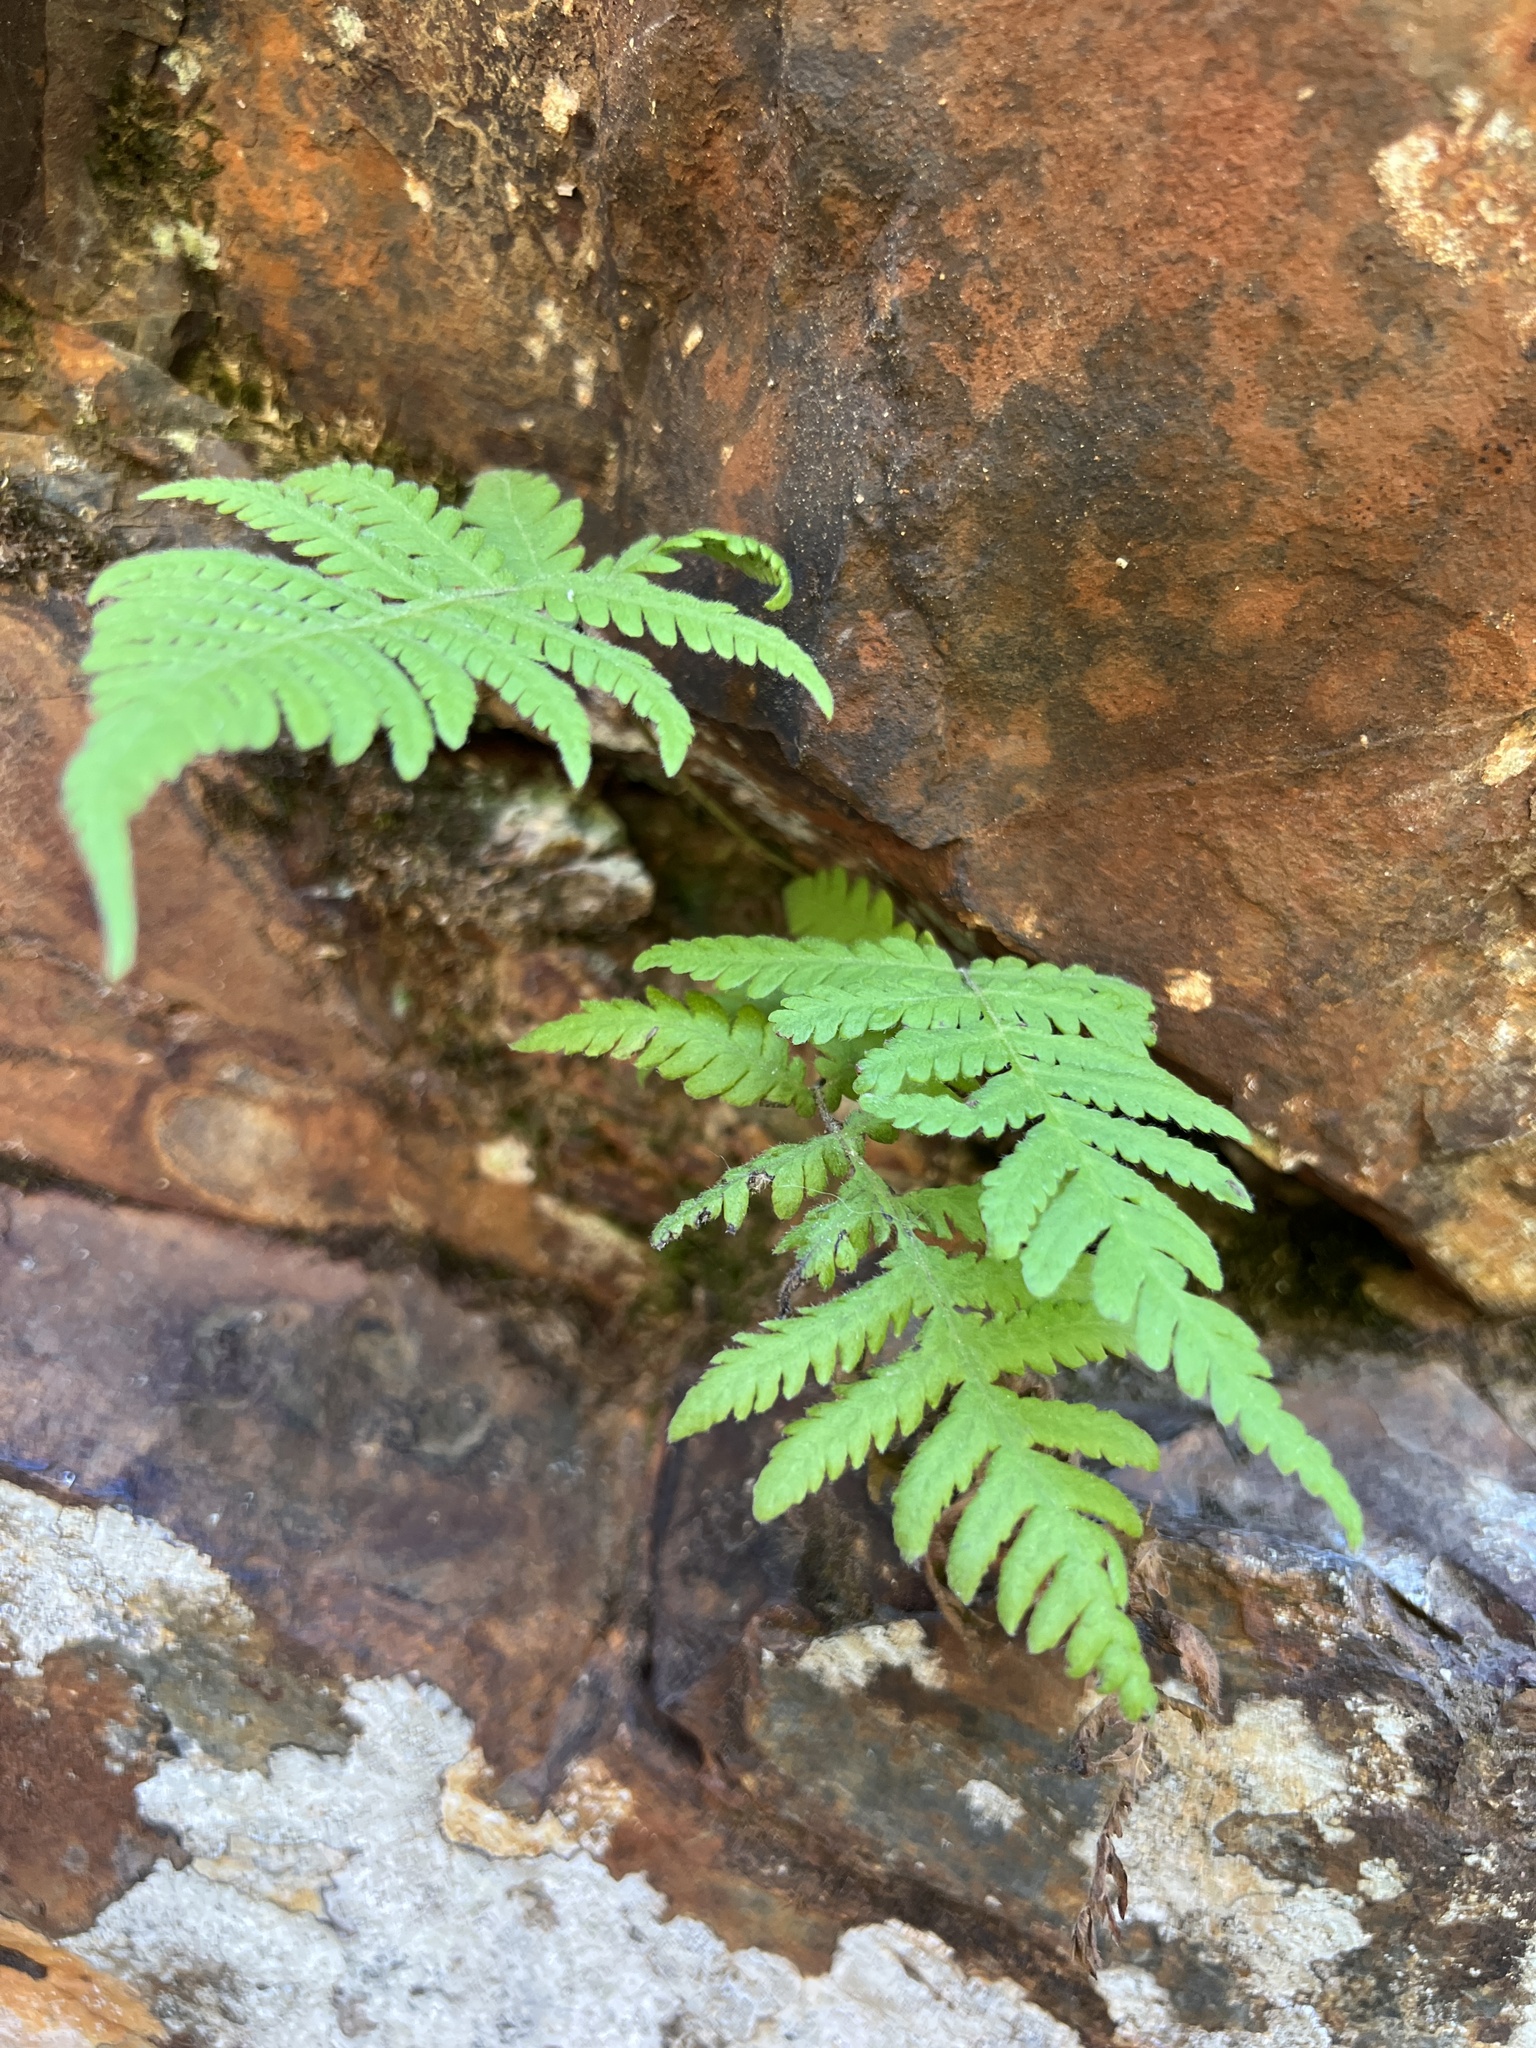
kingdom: Plantae
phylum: Tracheophyta
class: Polypodiopsida
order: Polypodiales
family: Thelypteridaceae
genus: Phegopteris
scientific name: Phegopteris connectilis
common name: Beech fern
